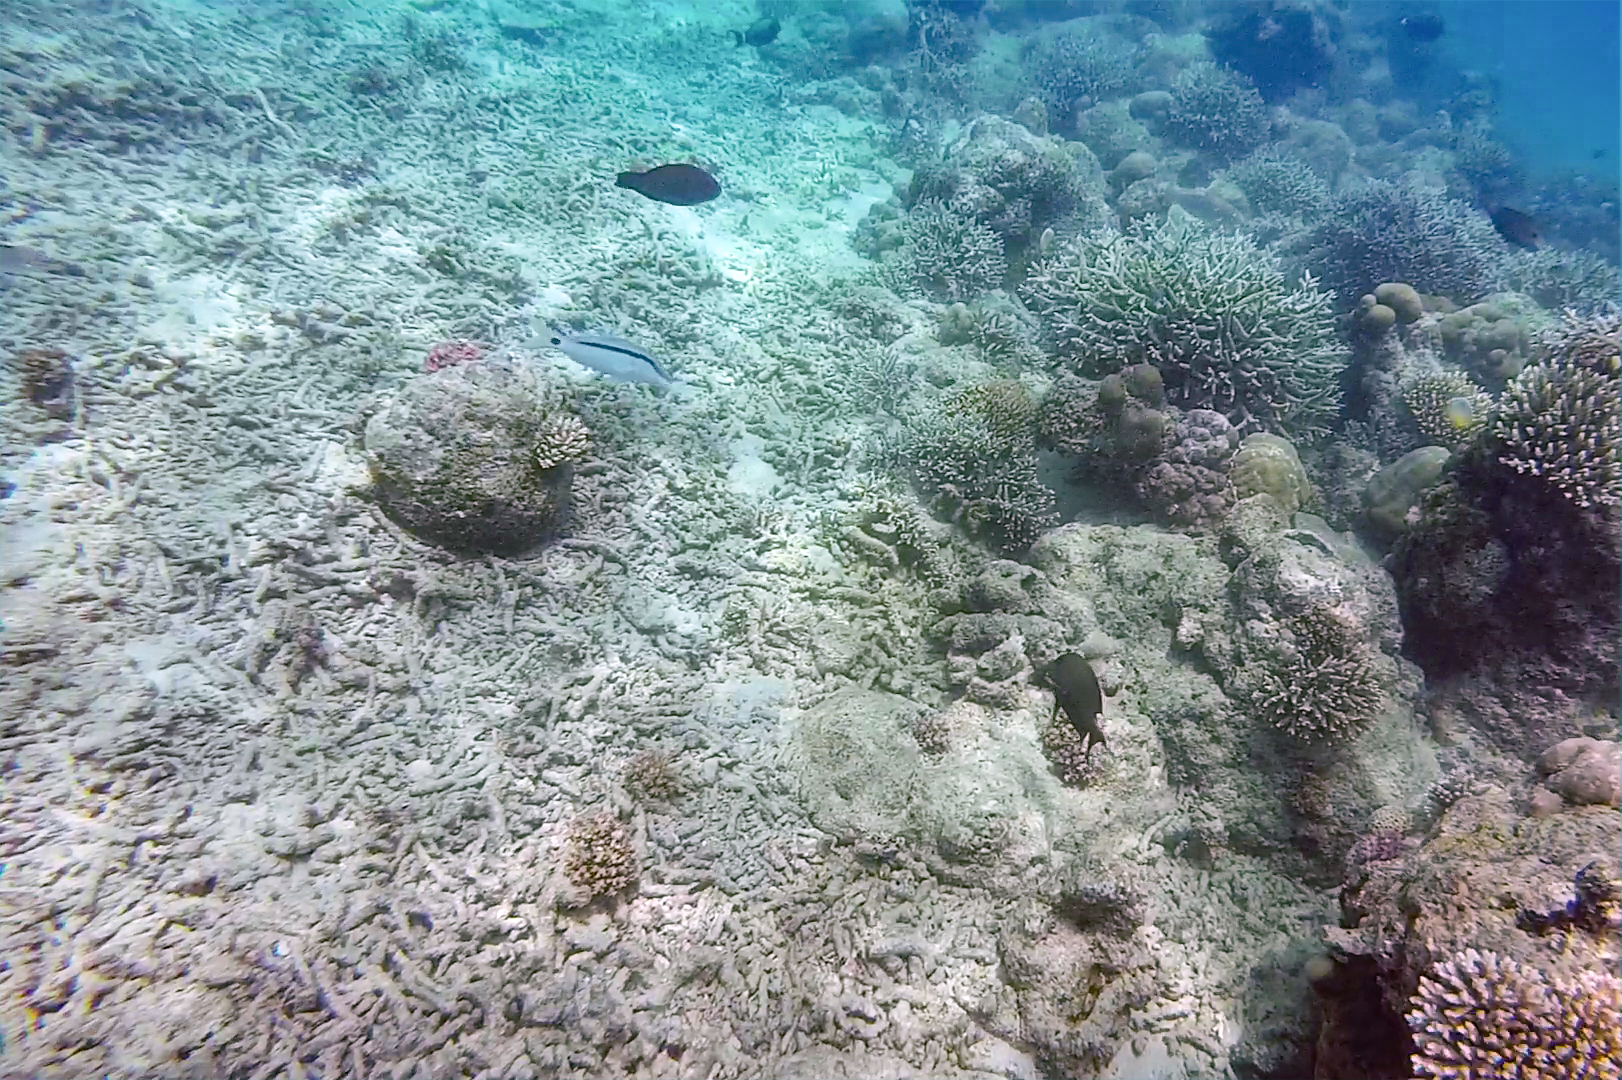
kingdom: Animalia
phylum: Chordata
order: Perciformes
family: Mullidae
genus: Parupeneus
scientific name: Parupeneus barberinus
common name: Dash-and-dot goatfish
